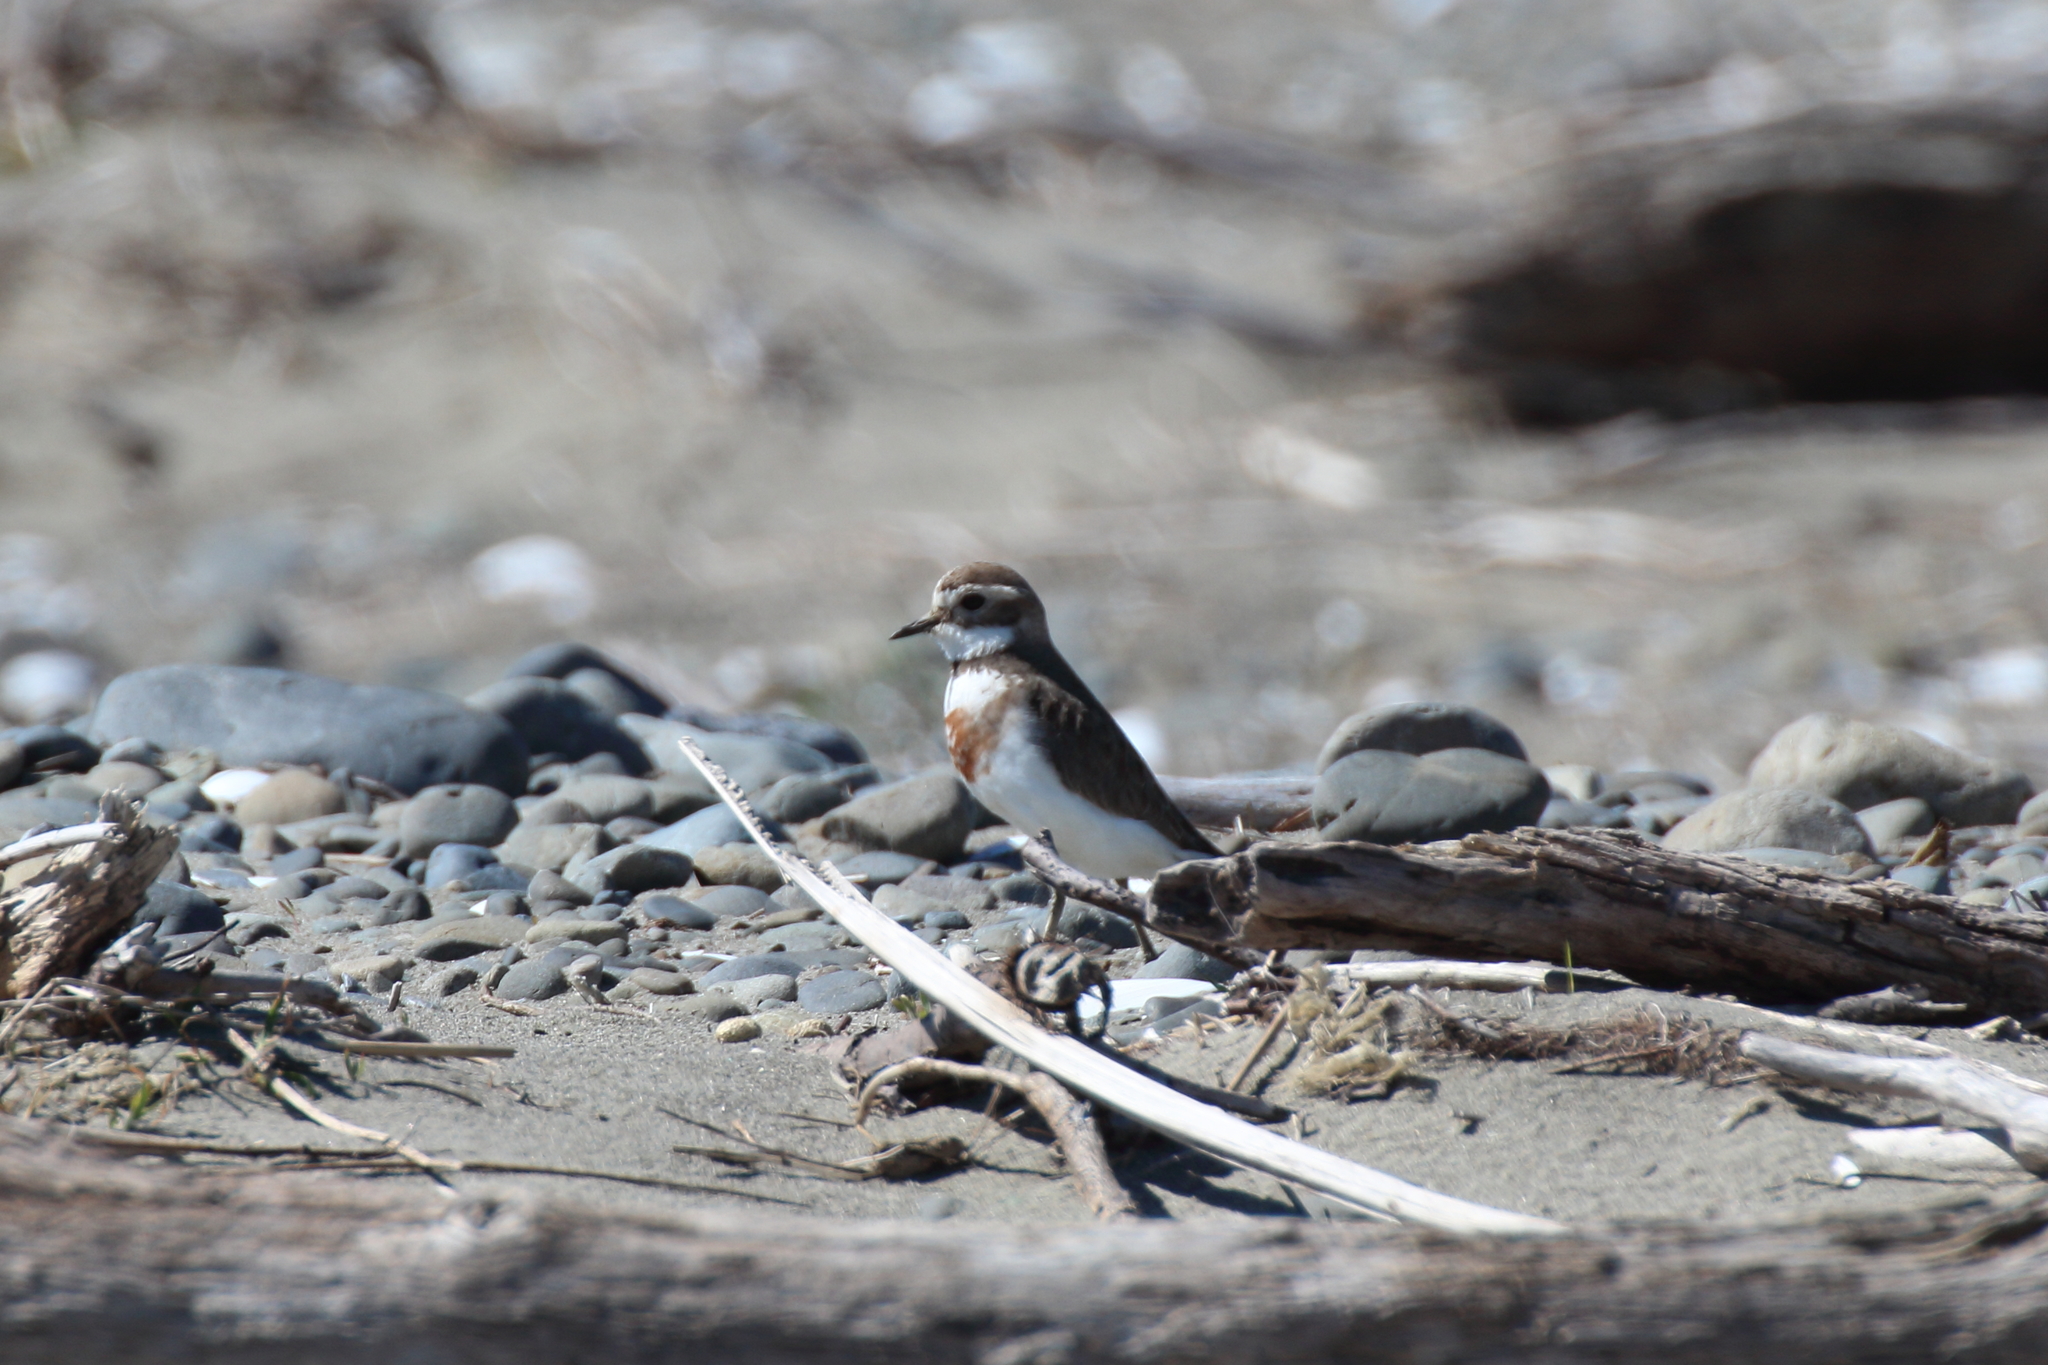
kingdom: Animalia
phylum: Chordata
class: Aves
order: Charadriiformes
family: Charadriidae
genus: Anarhynchus
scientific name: Anarhynchus
